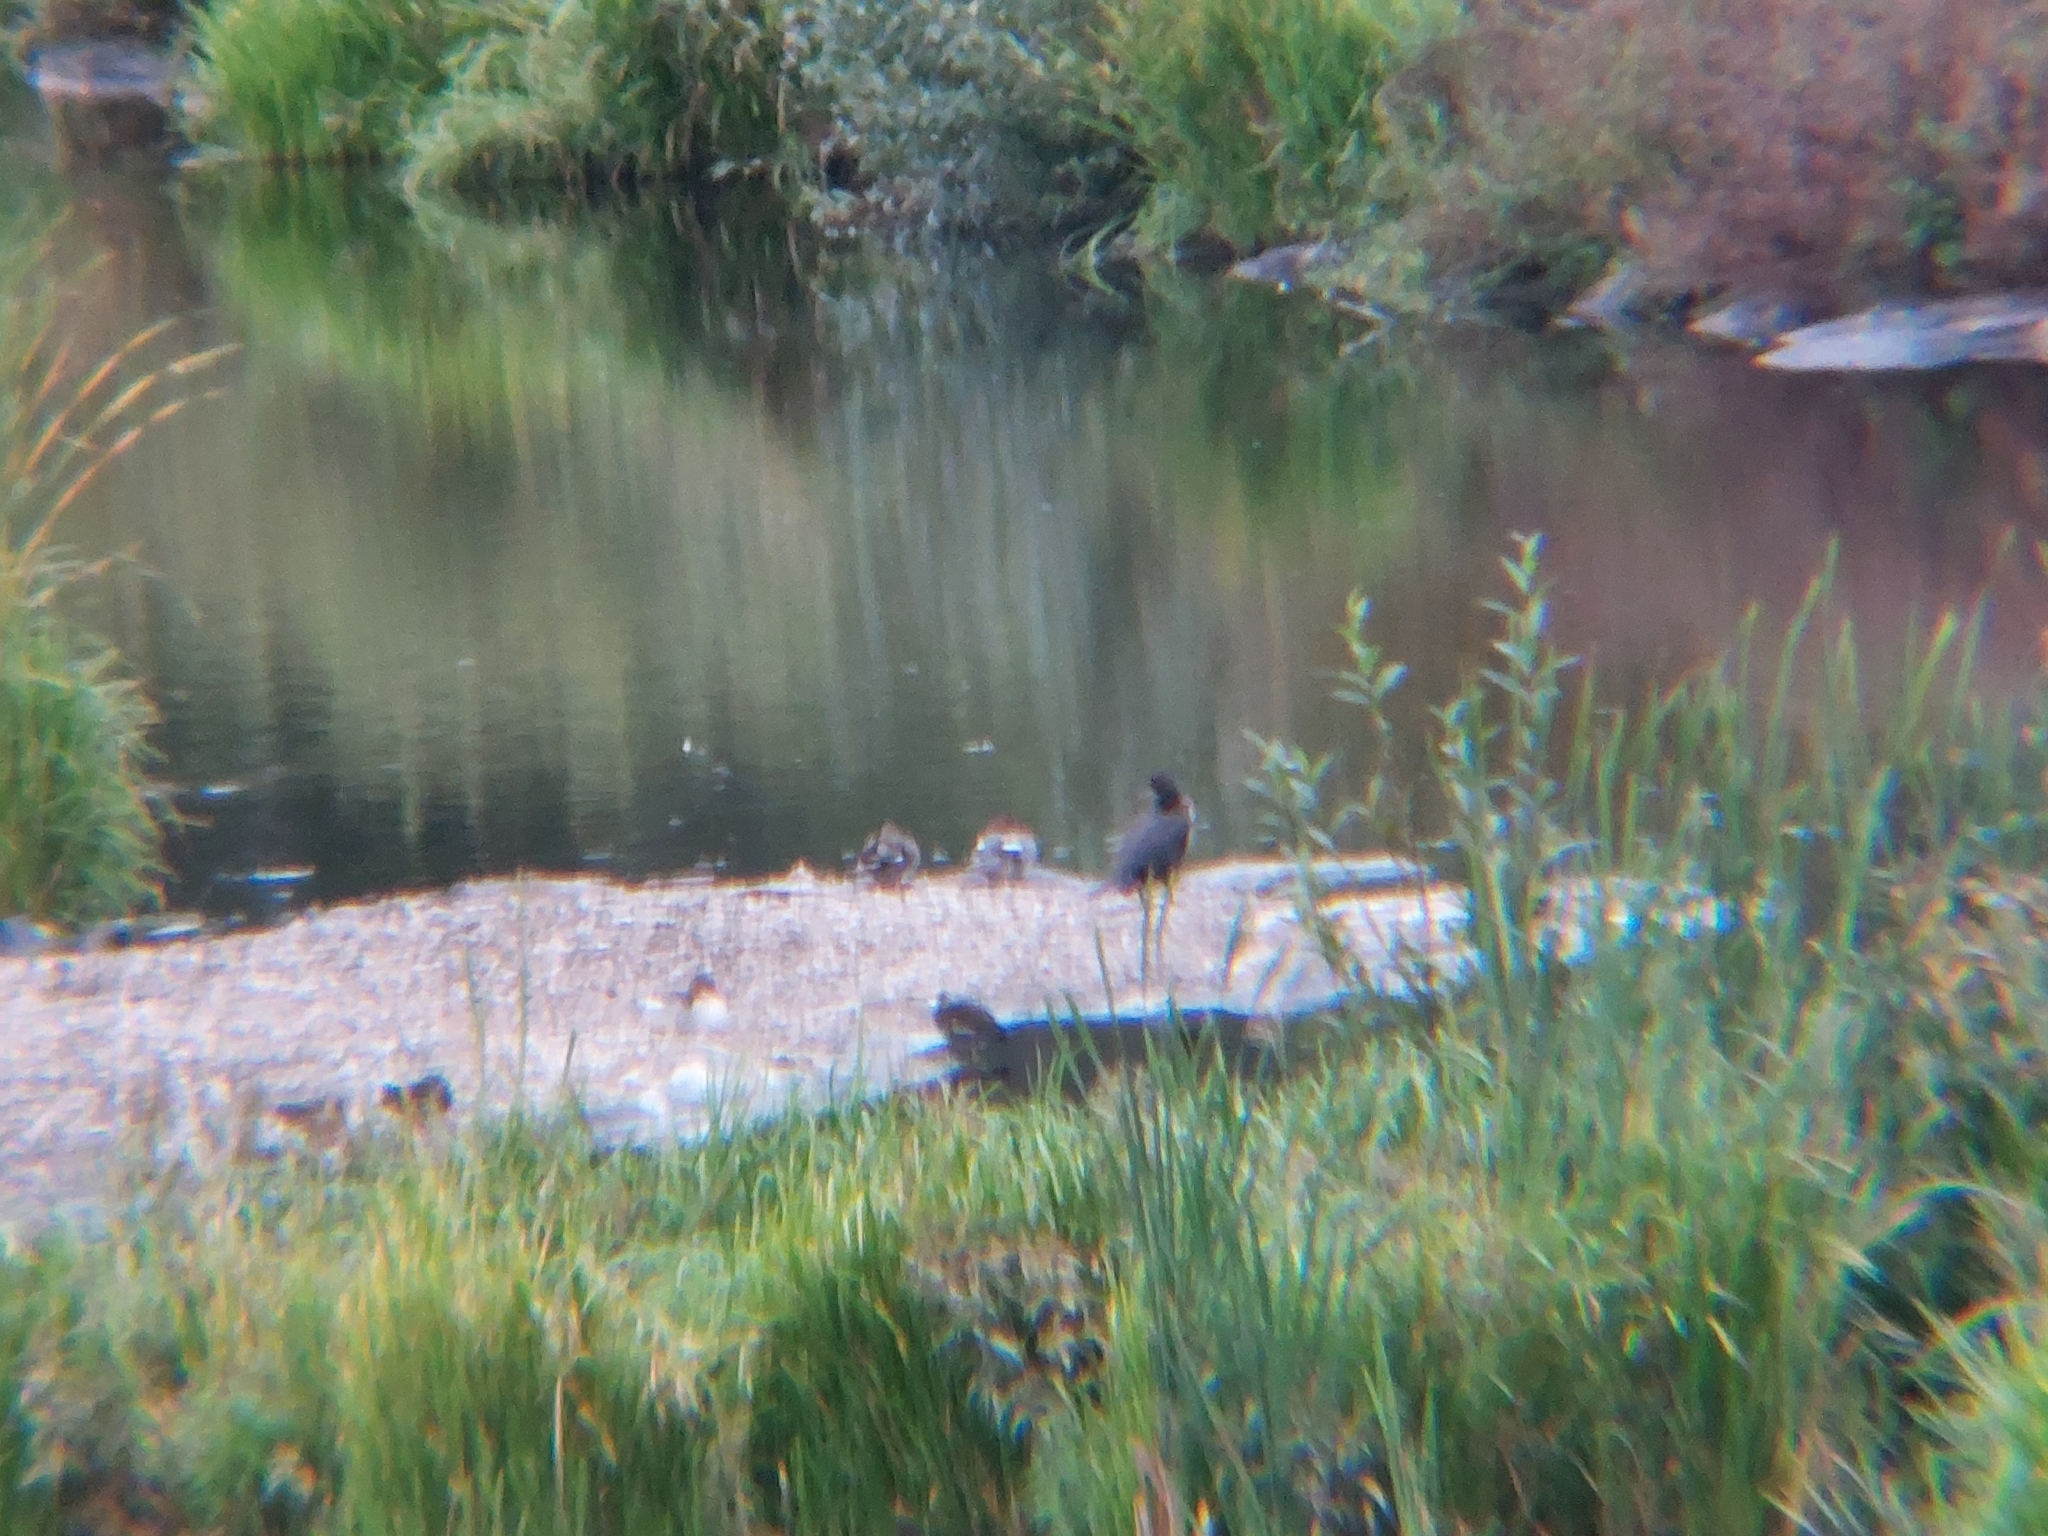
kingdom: Animalia
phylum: Chordata
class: Aves
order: Suliformes
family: Phalacrocoracidae
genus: Phalacrocorax
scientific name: Phalacrocorax carbo
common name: Great cormorant
